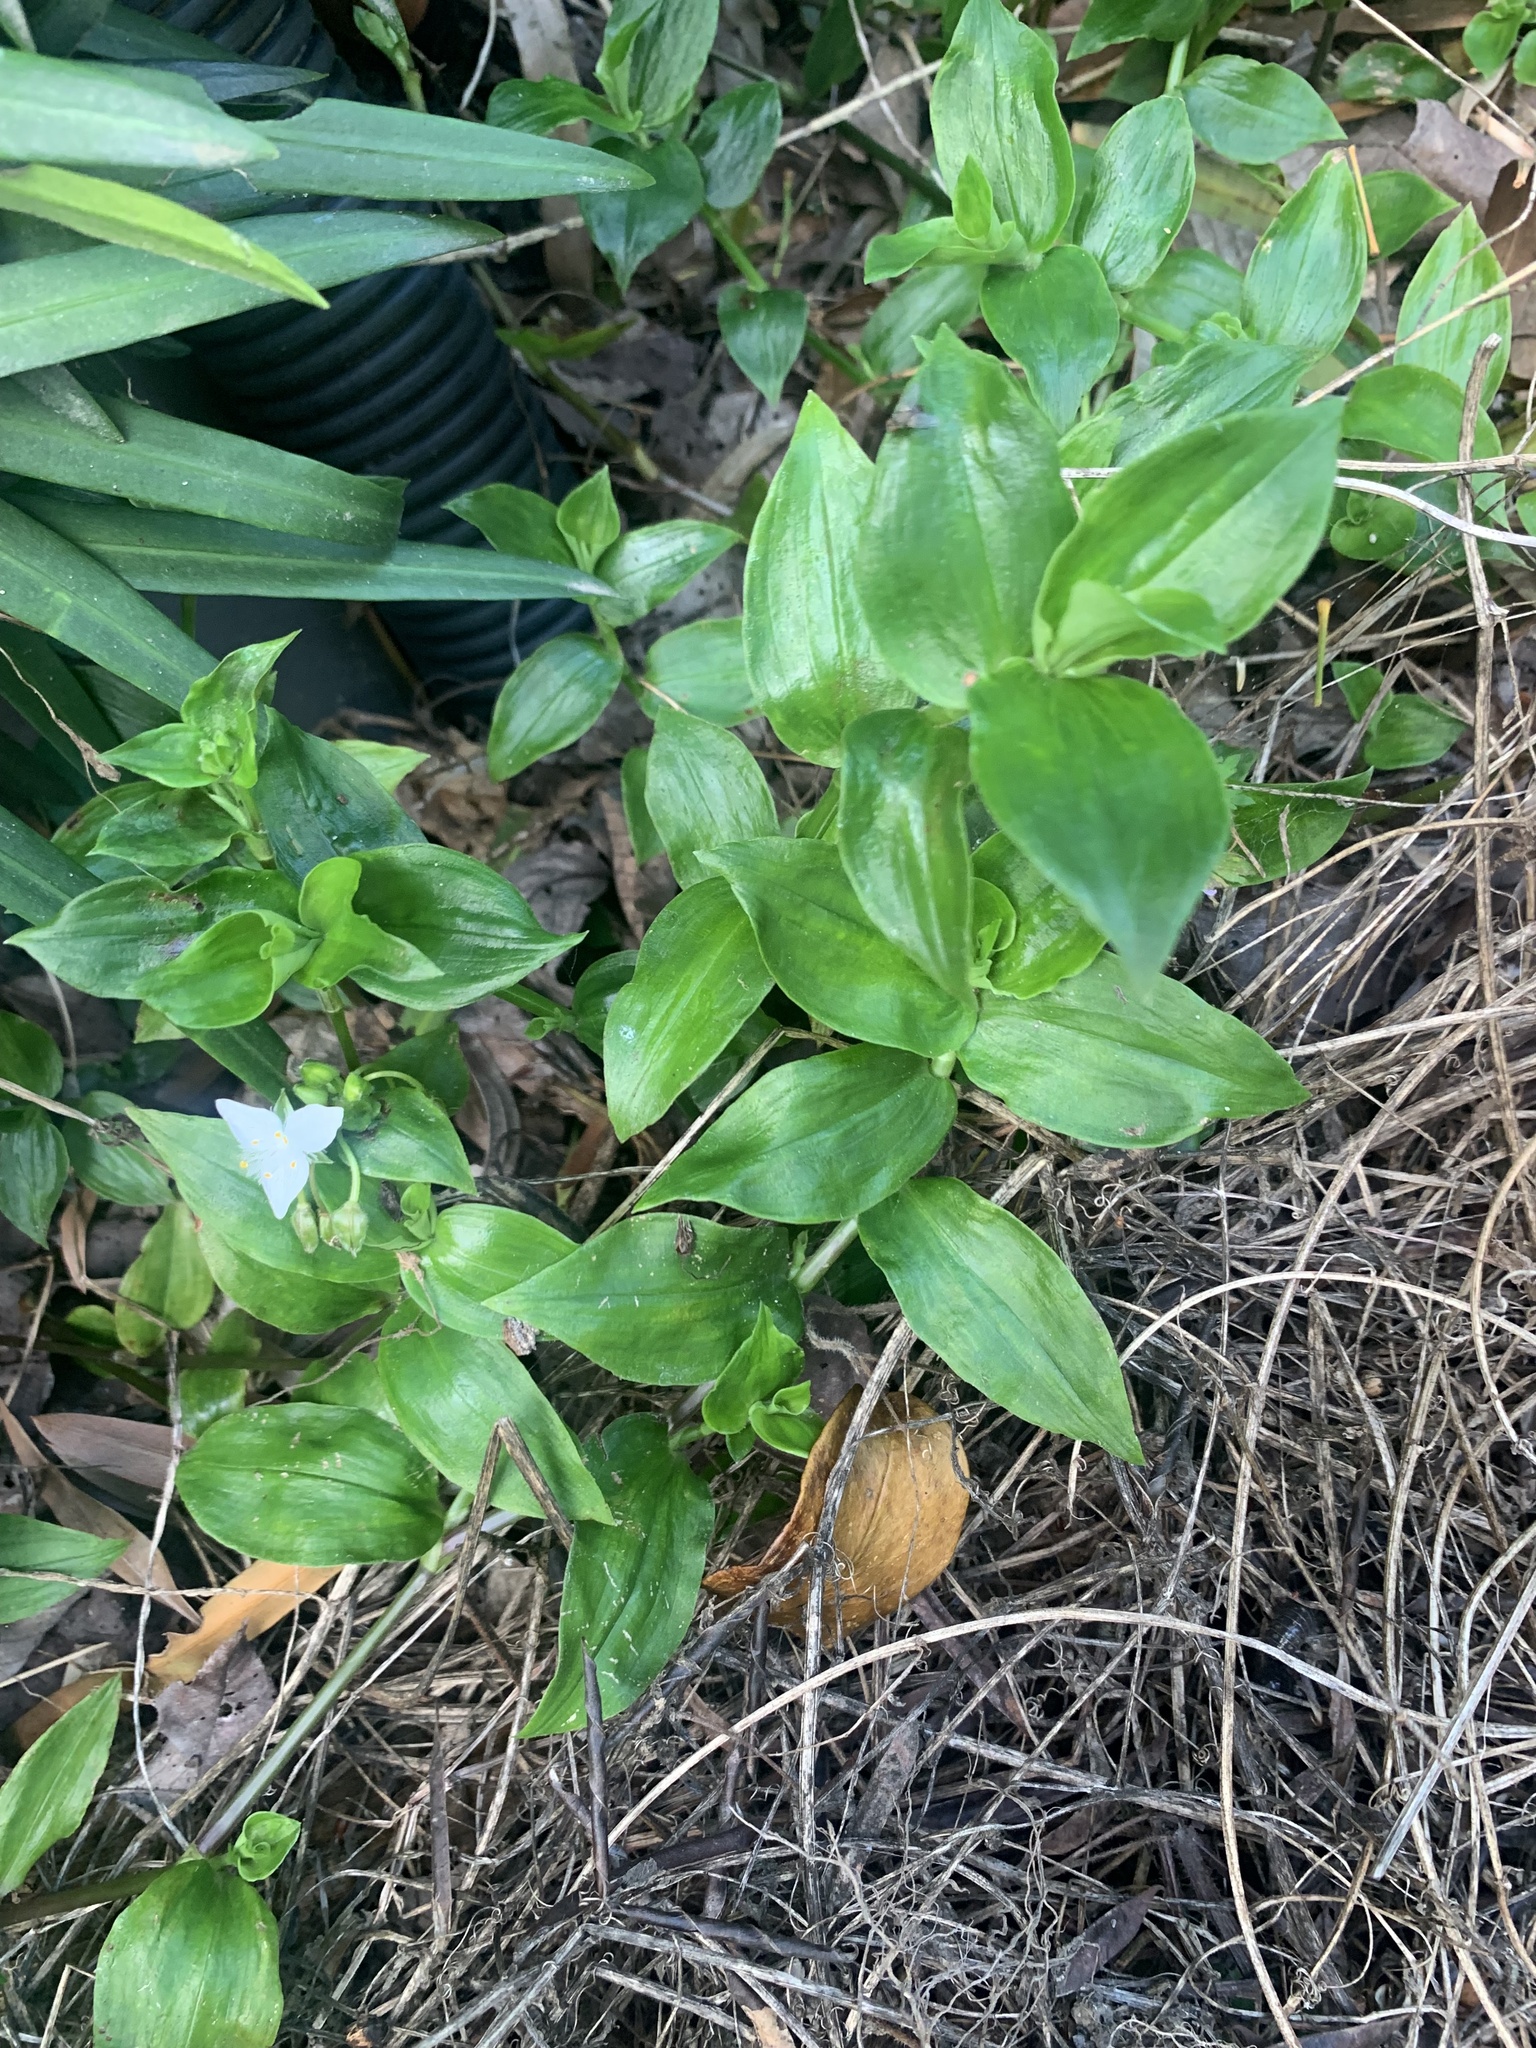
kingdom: Plantae
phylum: Tracheophyta
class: Liliopsida
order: Commelinales
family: Commelinaceae
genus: Tradescantia
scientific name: Tradescantia fluminensis
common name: Wandering-jew
